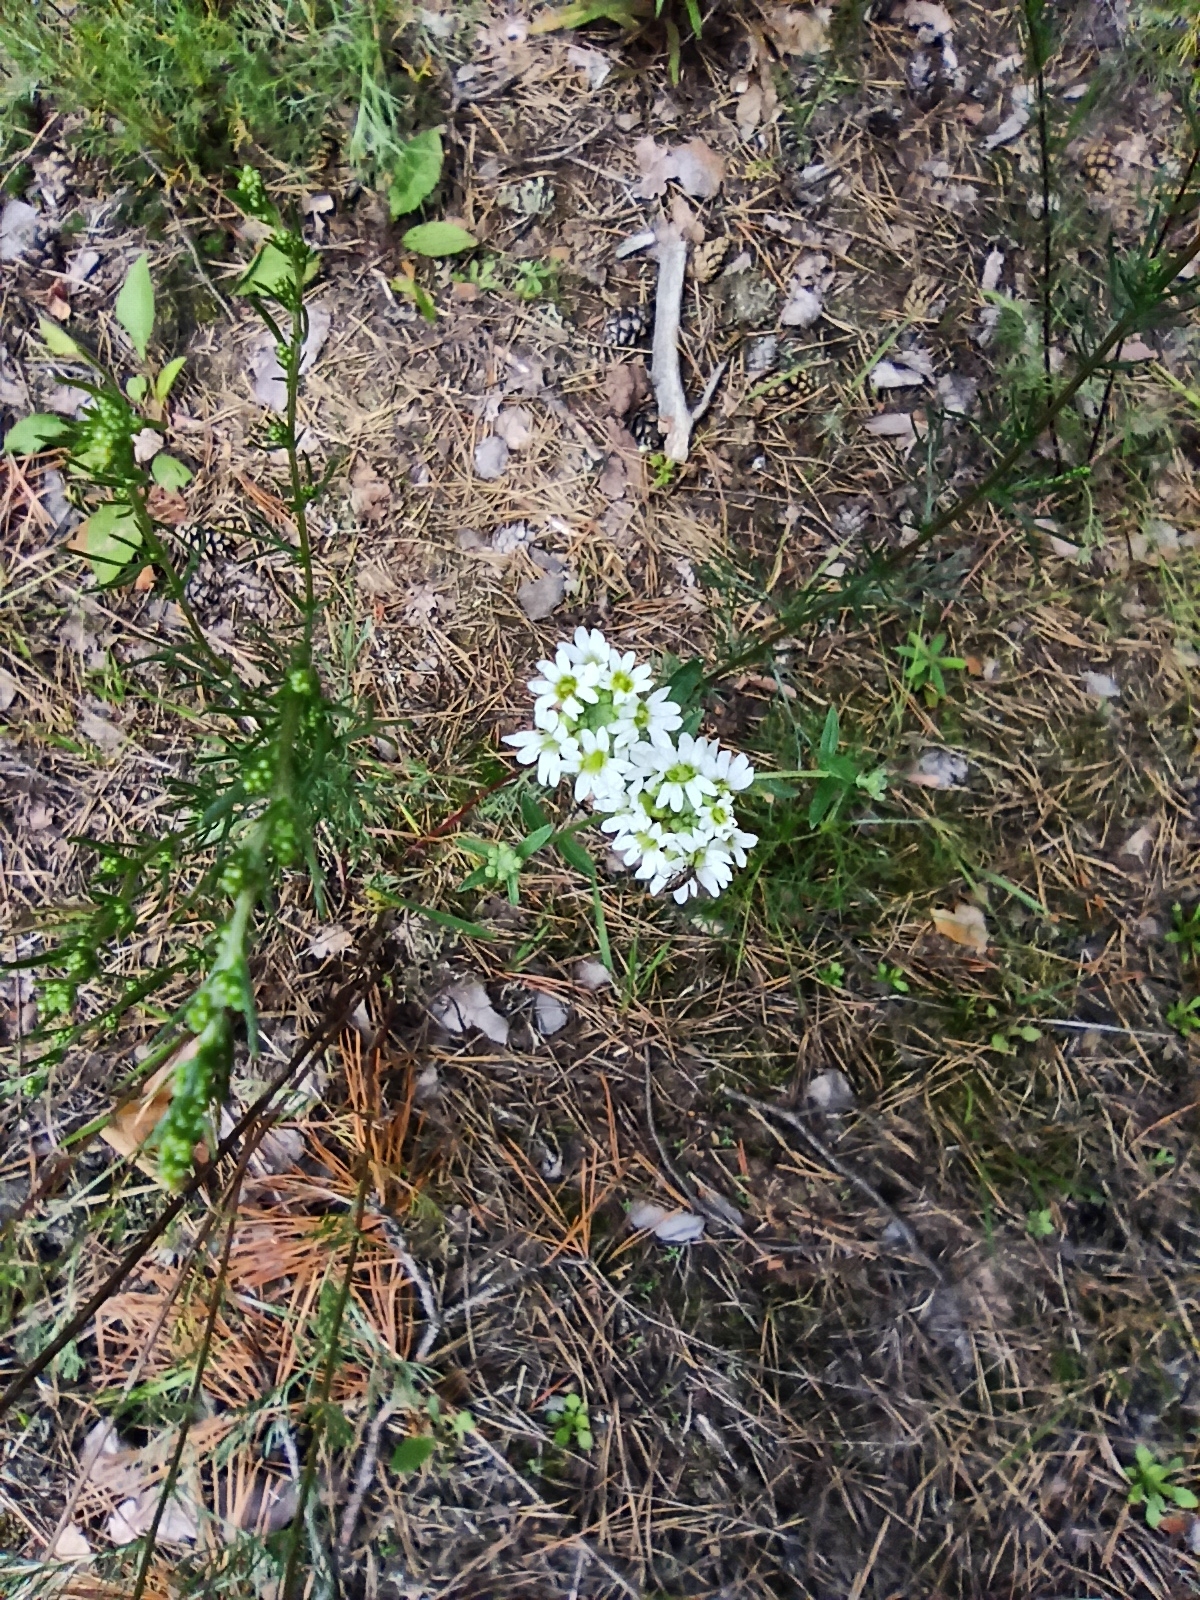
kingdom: Plantae
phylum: Tracheophyta
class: Magnoliopsida
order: Brassicales
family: Brassicaceae
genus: Berteroa
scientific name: Berteroa incana
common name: Hoary alison
